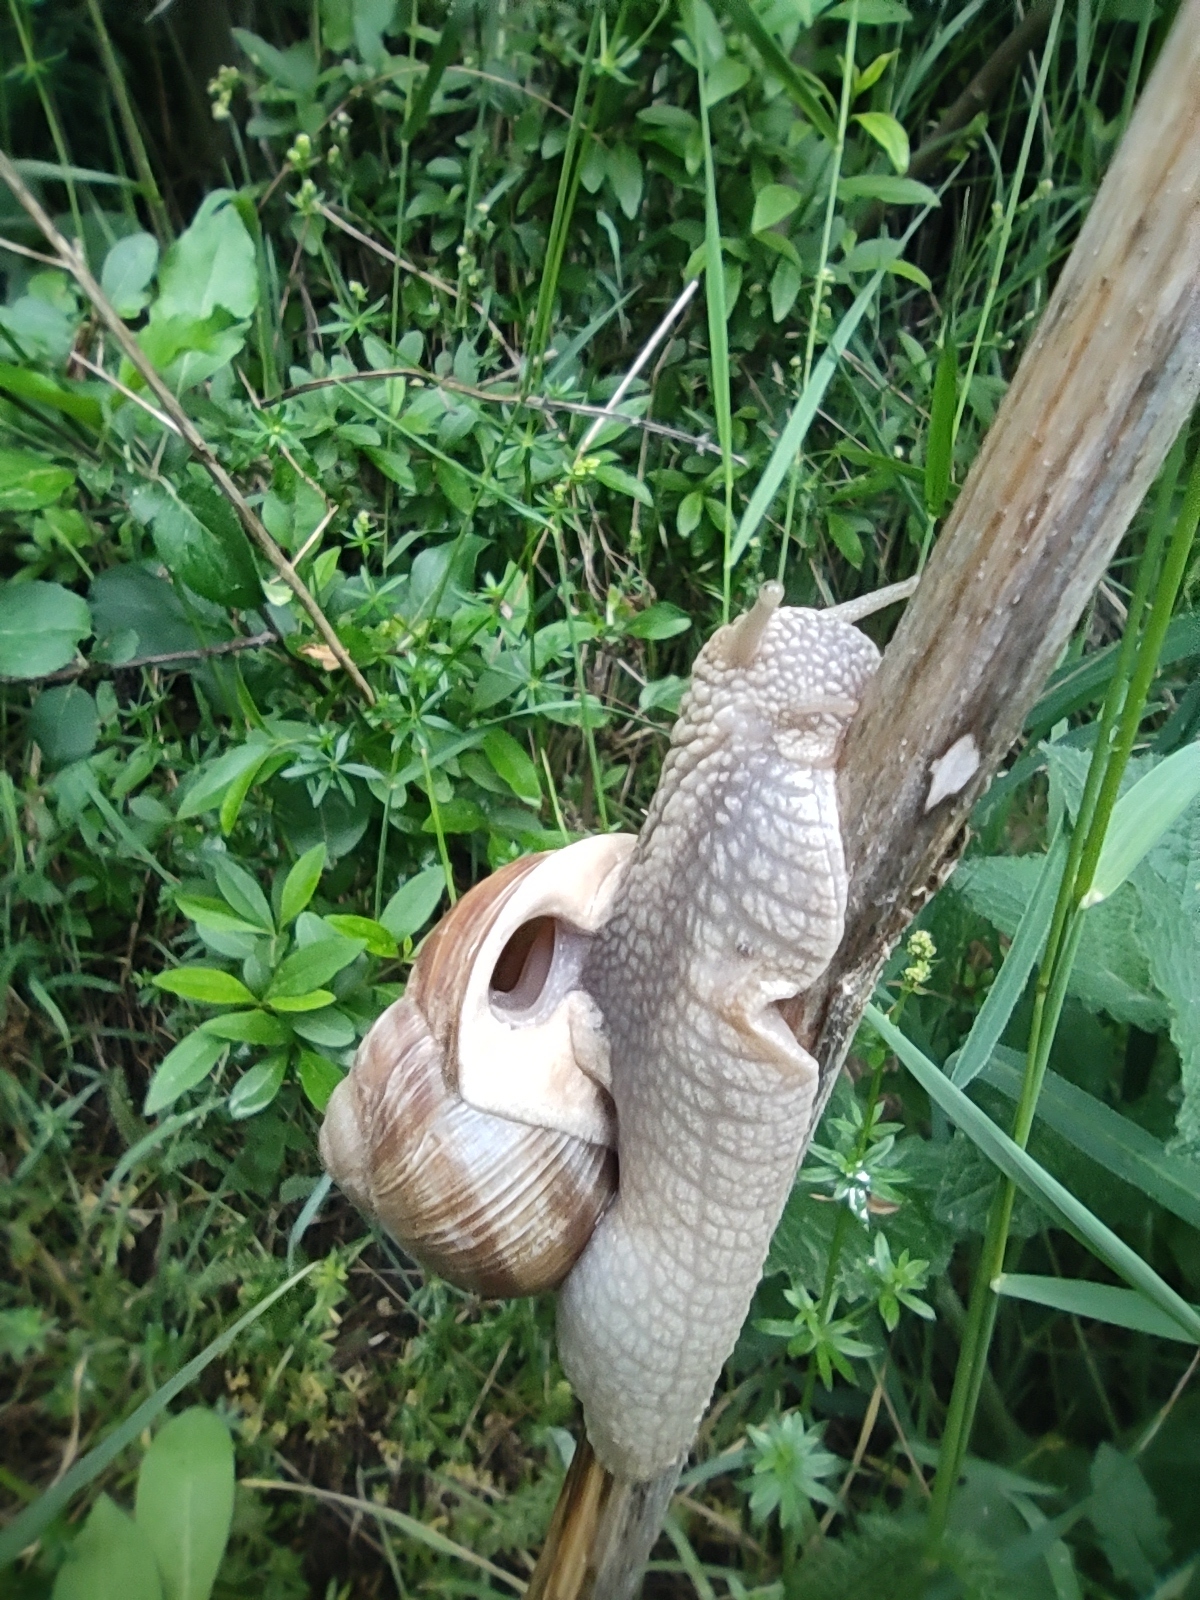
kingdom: Animalia
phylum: Mollusca
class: Gastropoda
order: Stylommatophora
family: Helicidae
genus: Helix
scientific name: Helix pomatia
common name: Roman snail
